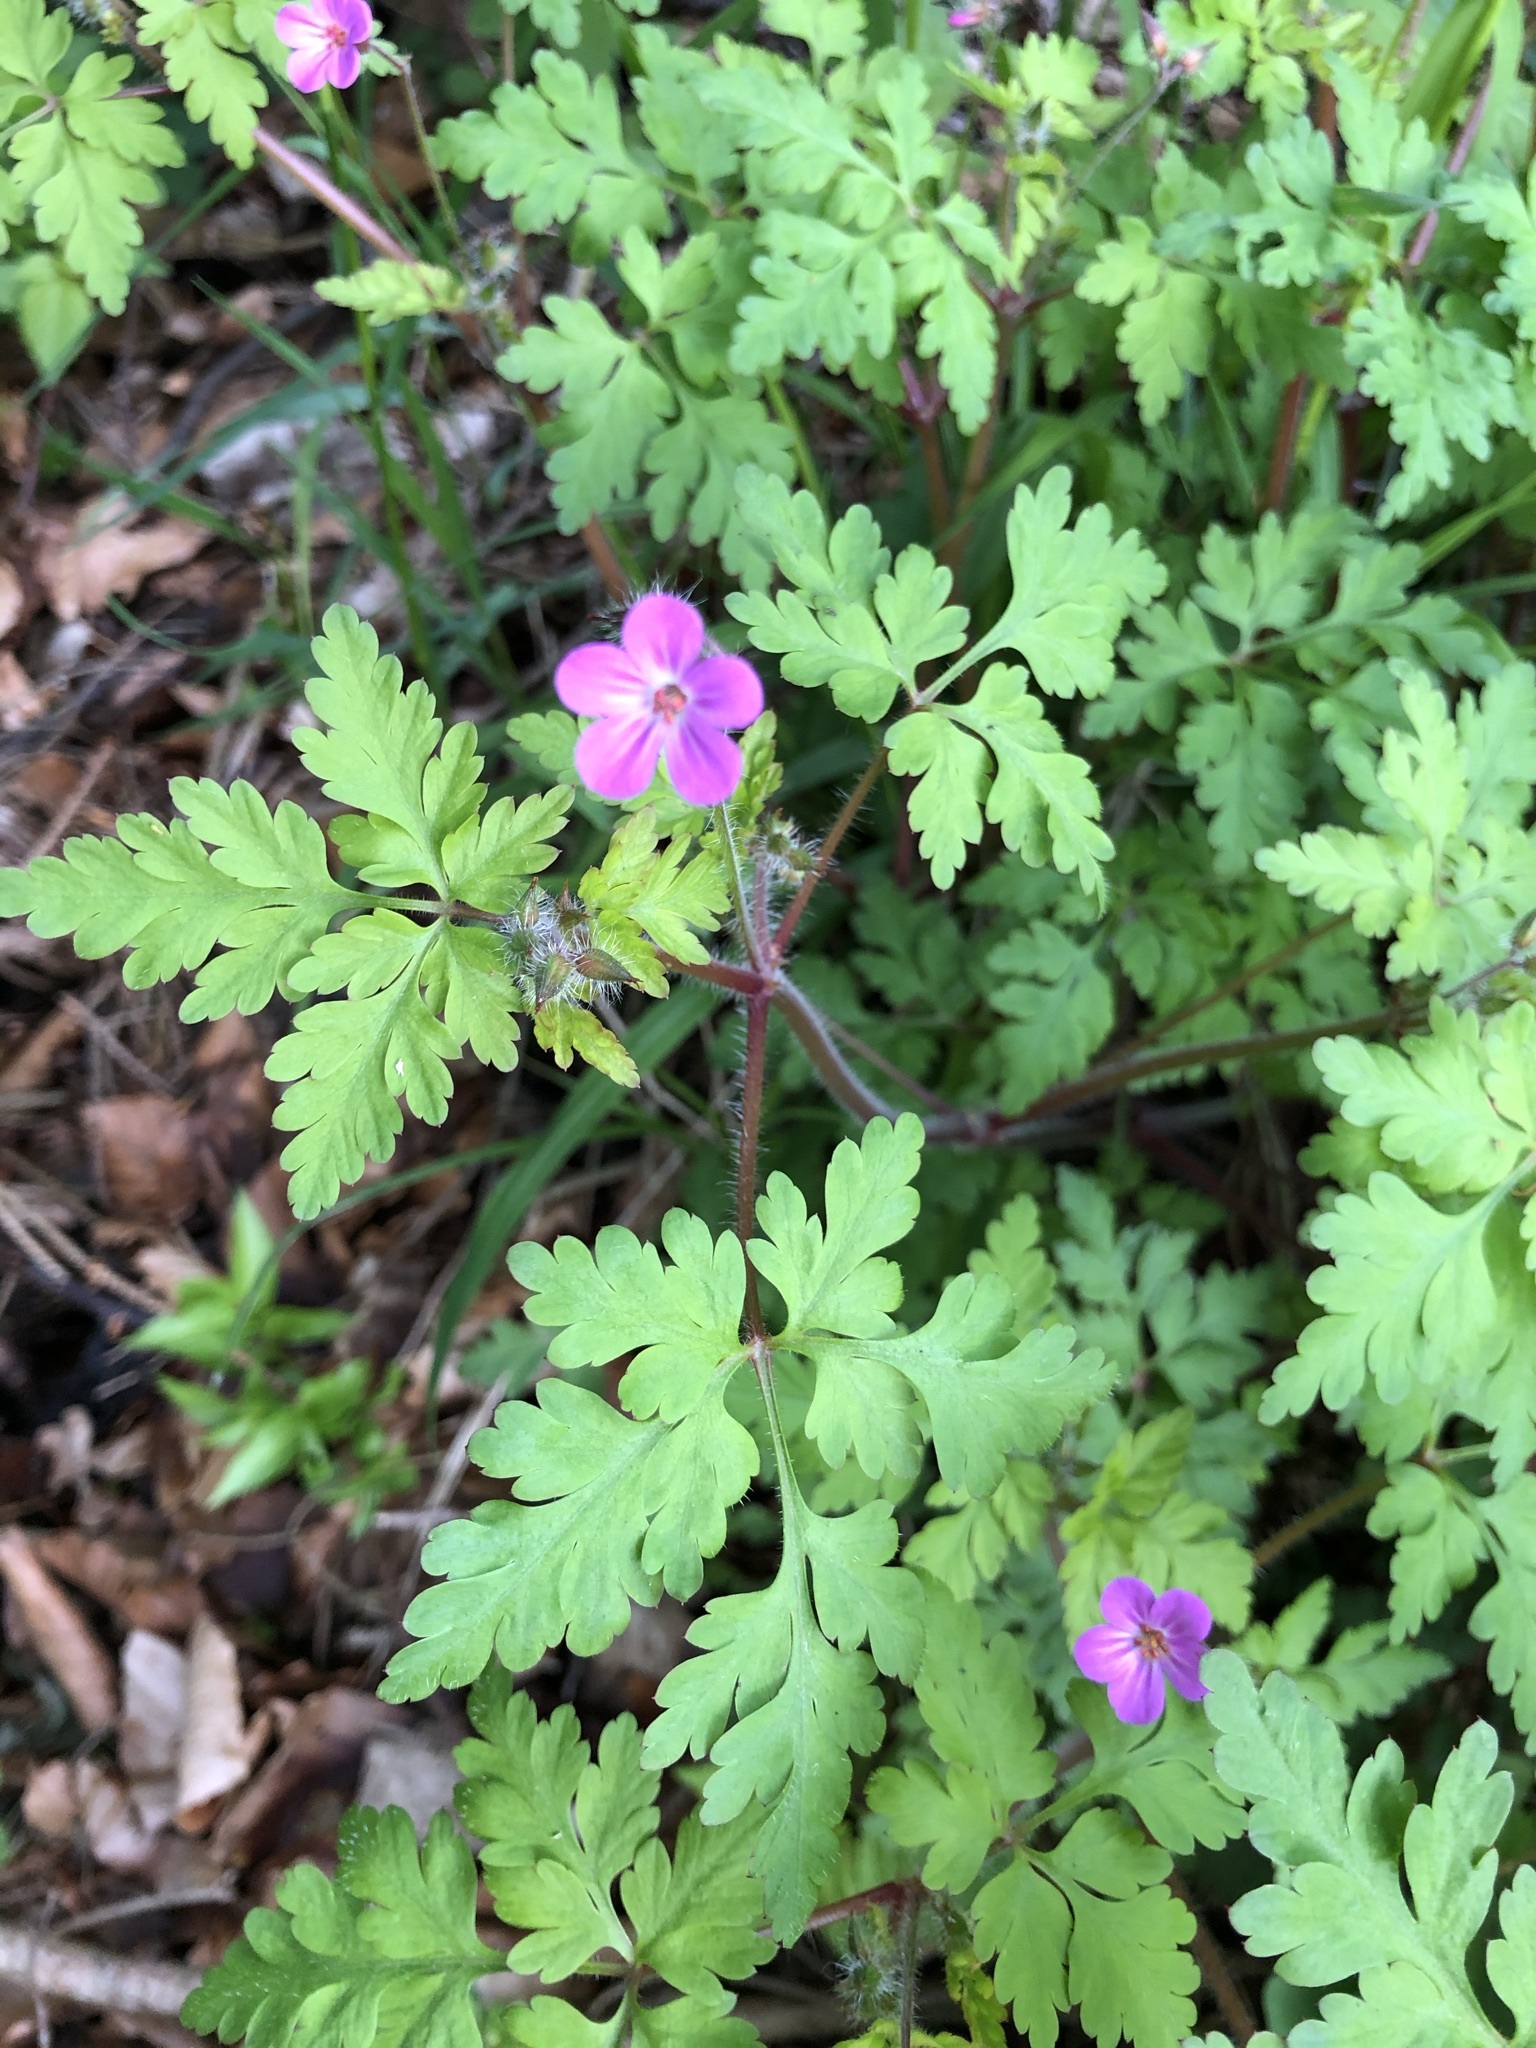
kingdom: Plantae
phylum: Tracheophyta
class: Magnoliopsida
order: Geraniales
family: Geraniaceae
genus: Geranium
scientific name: Geranium robertianum
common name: Herb-robert
